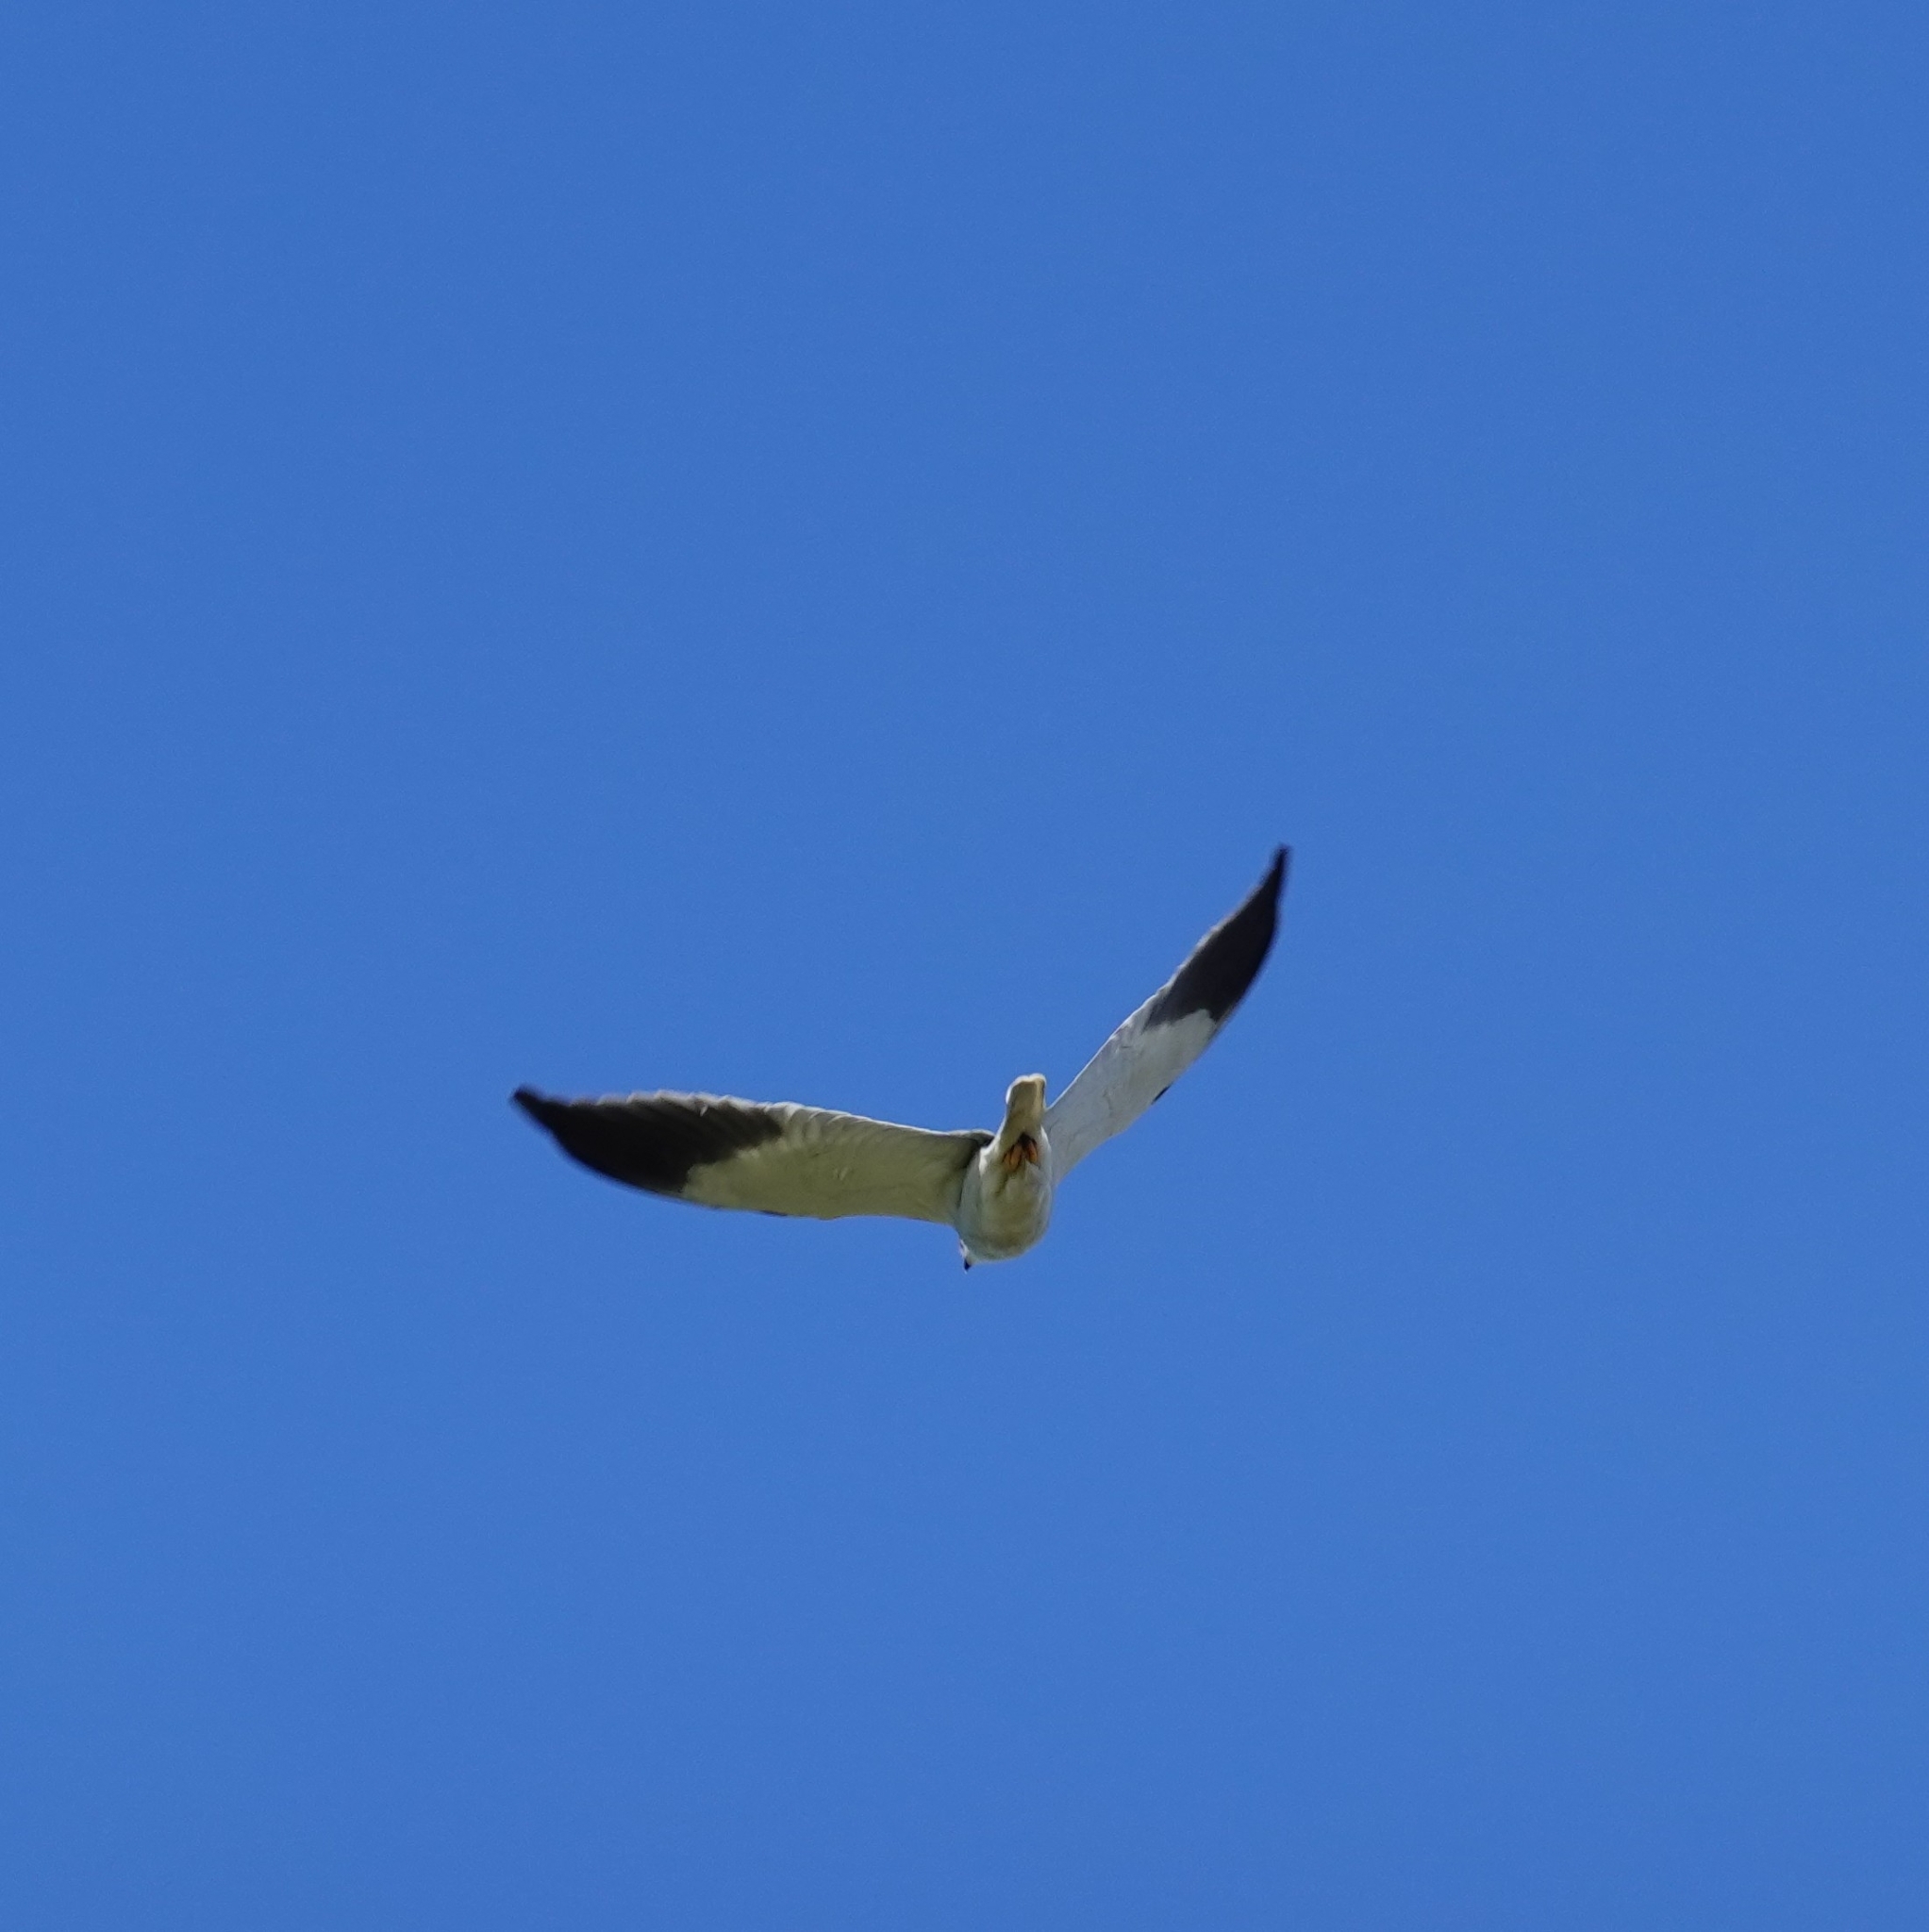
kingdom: Animalia
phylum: Chordata
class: Aves
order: Accipitriformes
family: Accipitridae
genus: Elanus
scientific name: Elanus caeruleus
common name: Black-winged kite
